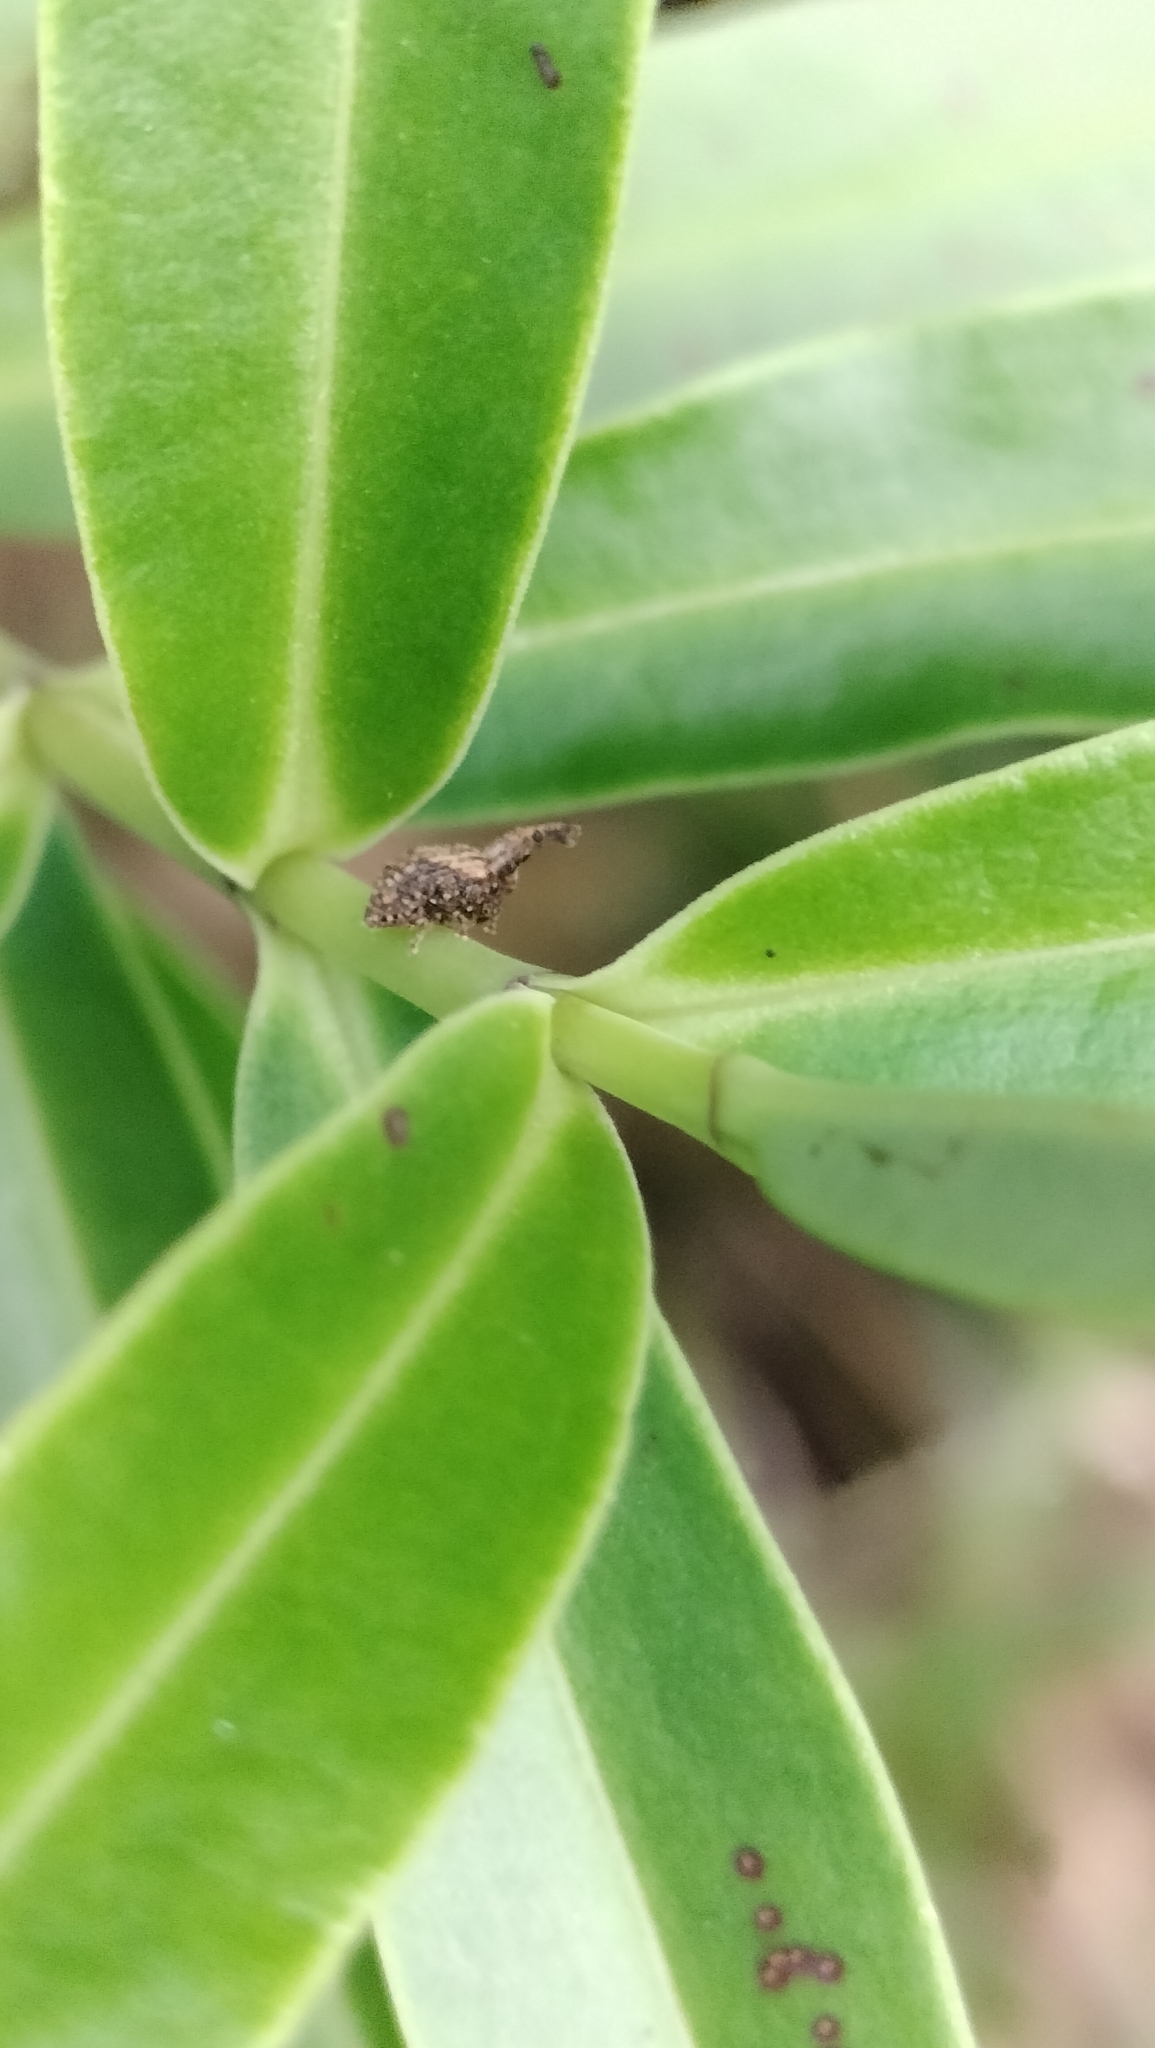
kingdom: Animalia
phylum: Arthropoda
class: Insecta
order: Coleoptera
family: Curculionidae
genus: Tysius
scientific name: Tysius bicornis
